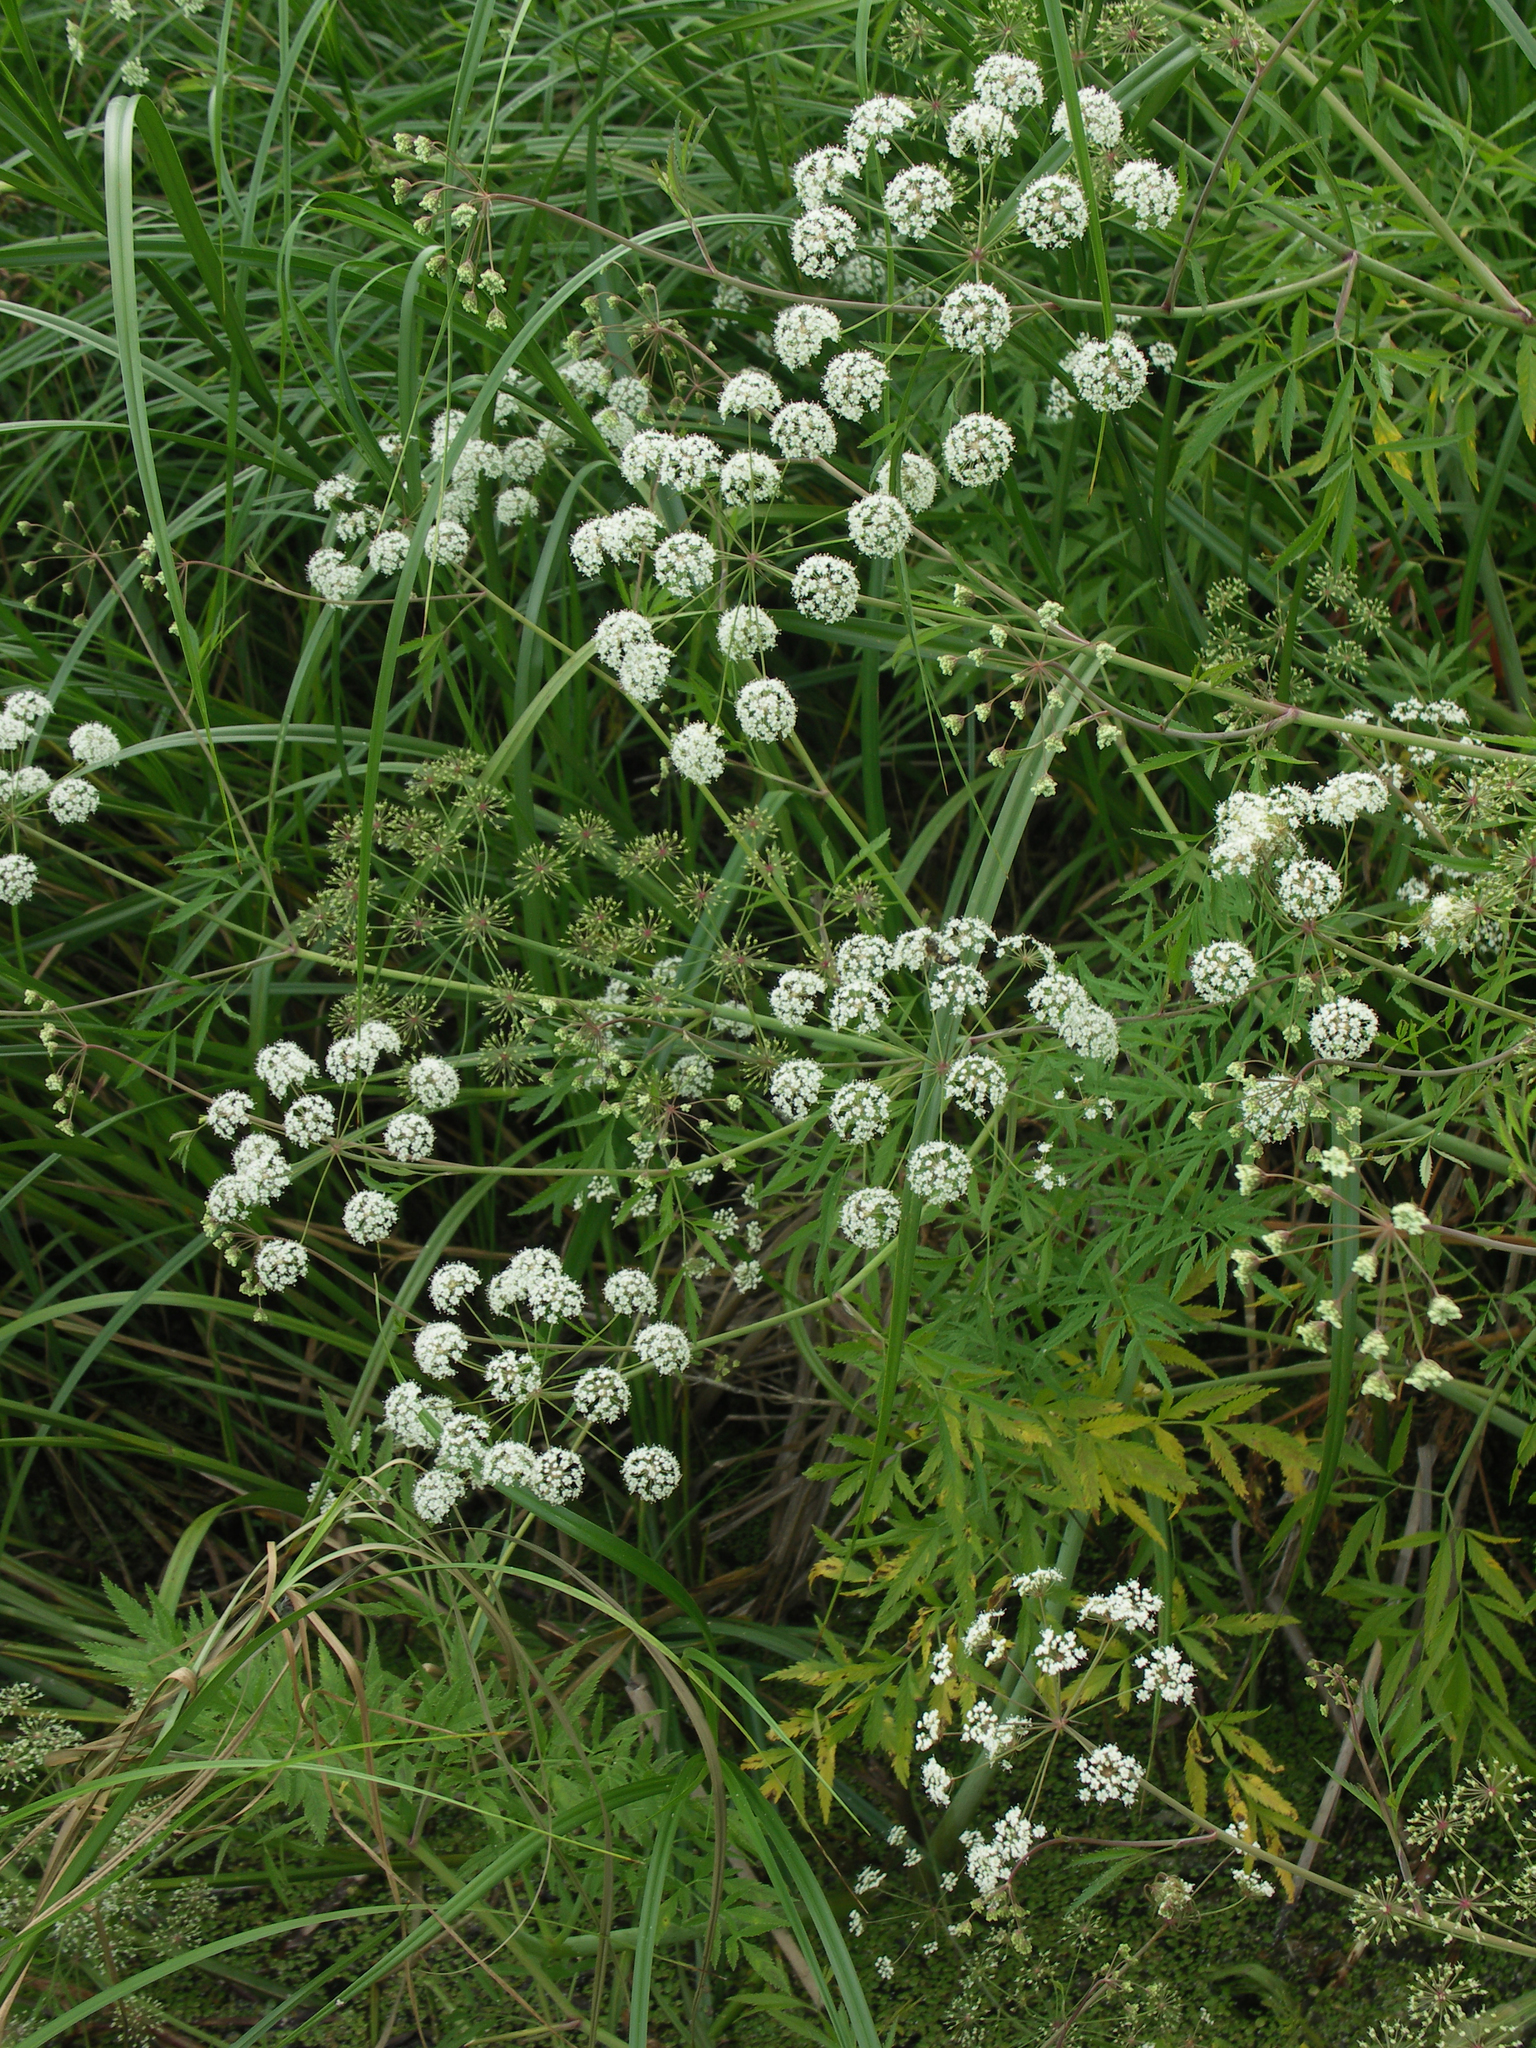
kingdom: Plantae
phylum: Tracheophyta
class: Magnoliopsida
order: Apiales
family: Apiaceae
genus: Cicuta
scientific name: Cicuta virosa
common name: Cowbane
